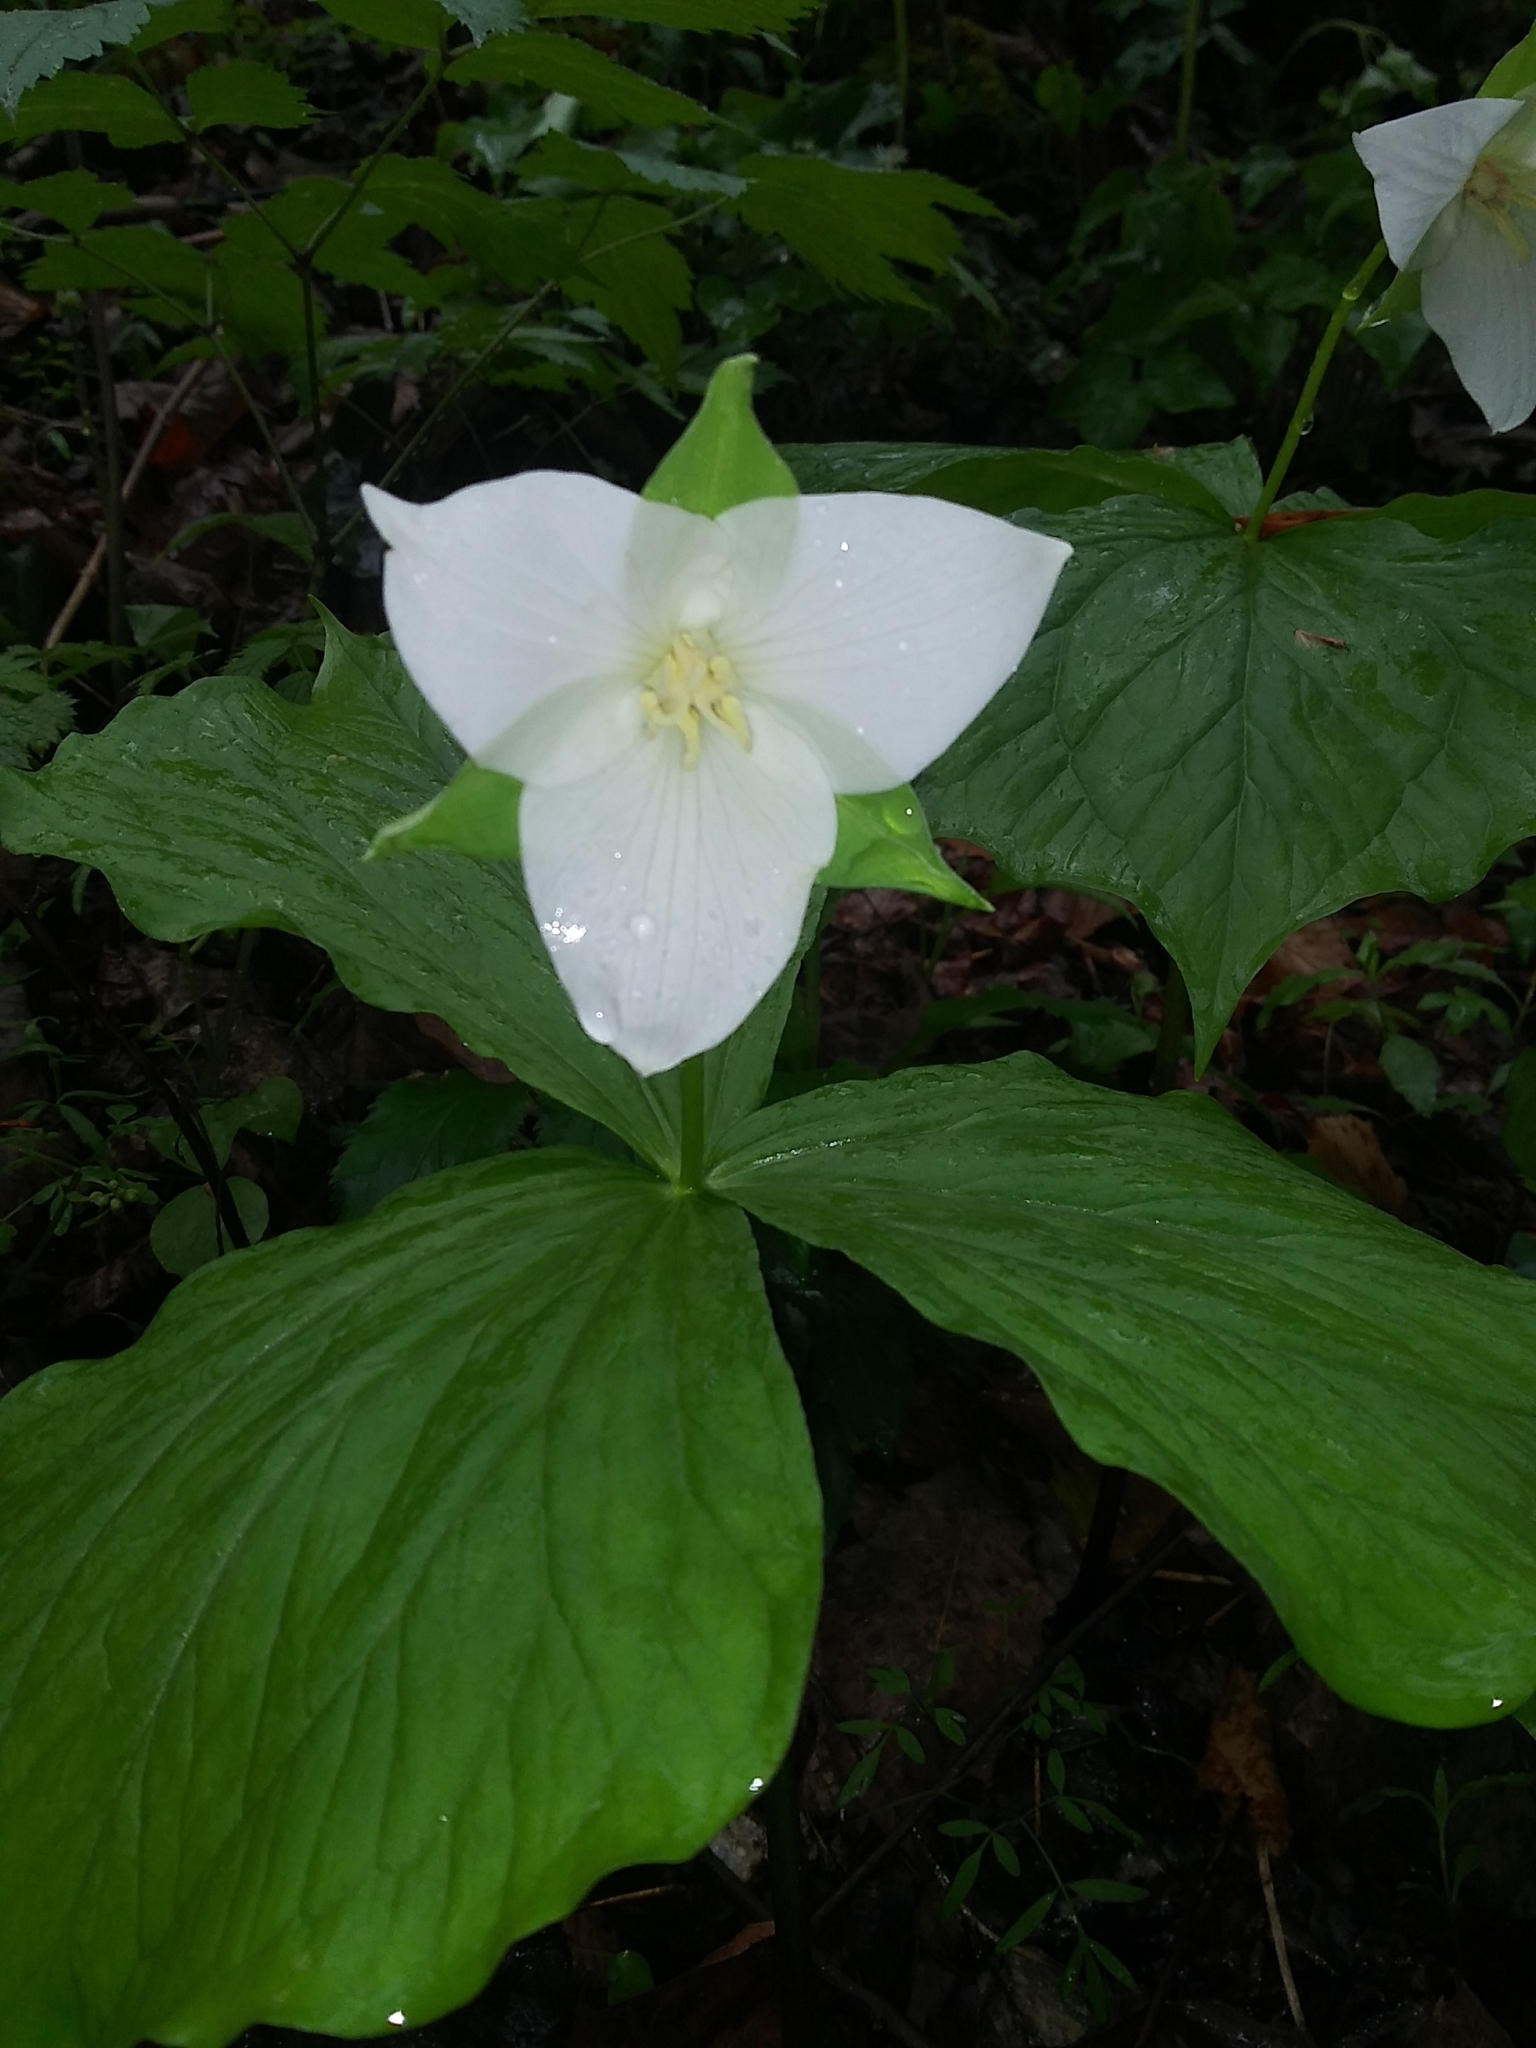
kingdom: Plantae
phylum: Tracheophyta
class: Liliopsida
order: Liliales
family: Melanthiaceae
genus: Trillium
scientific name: Trillium flexipes
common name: Drooping trillium
